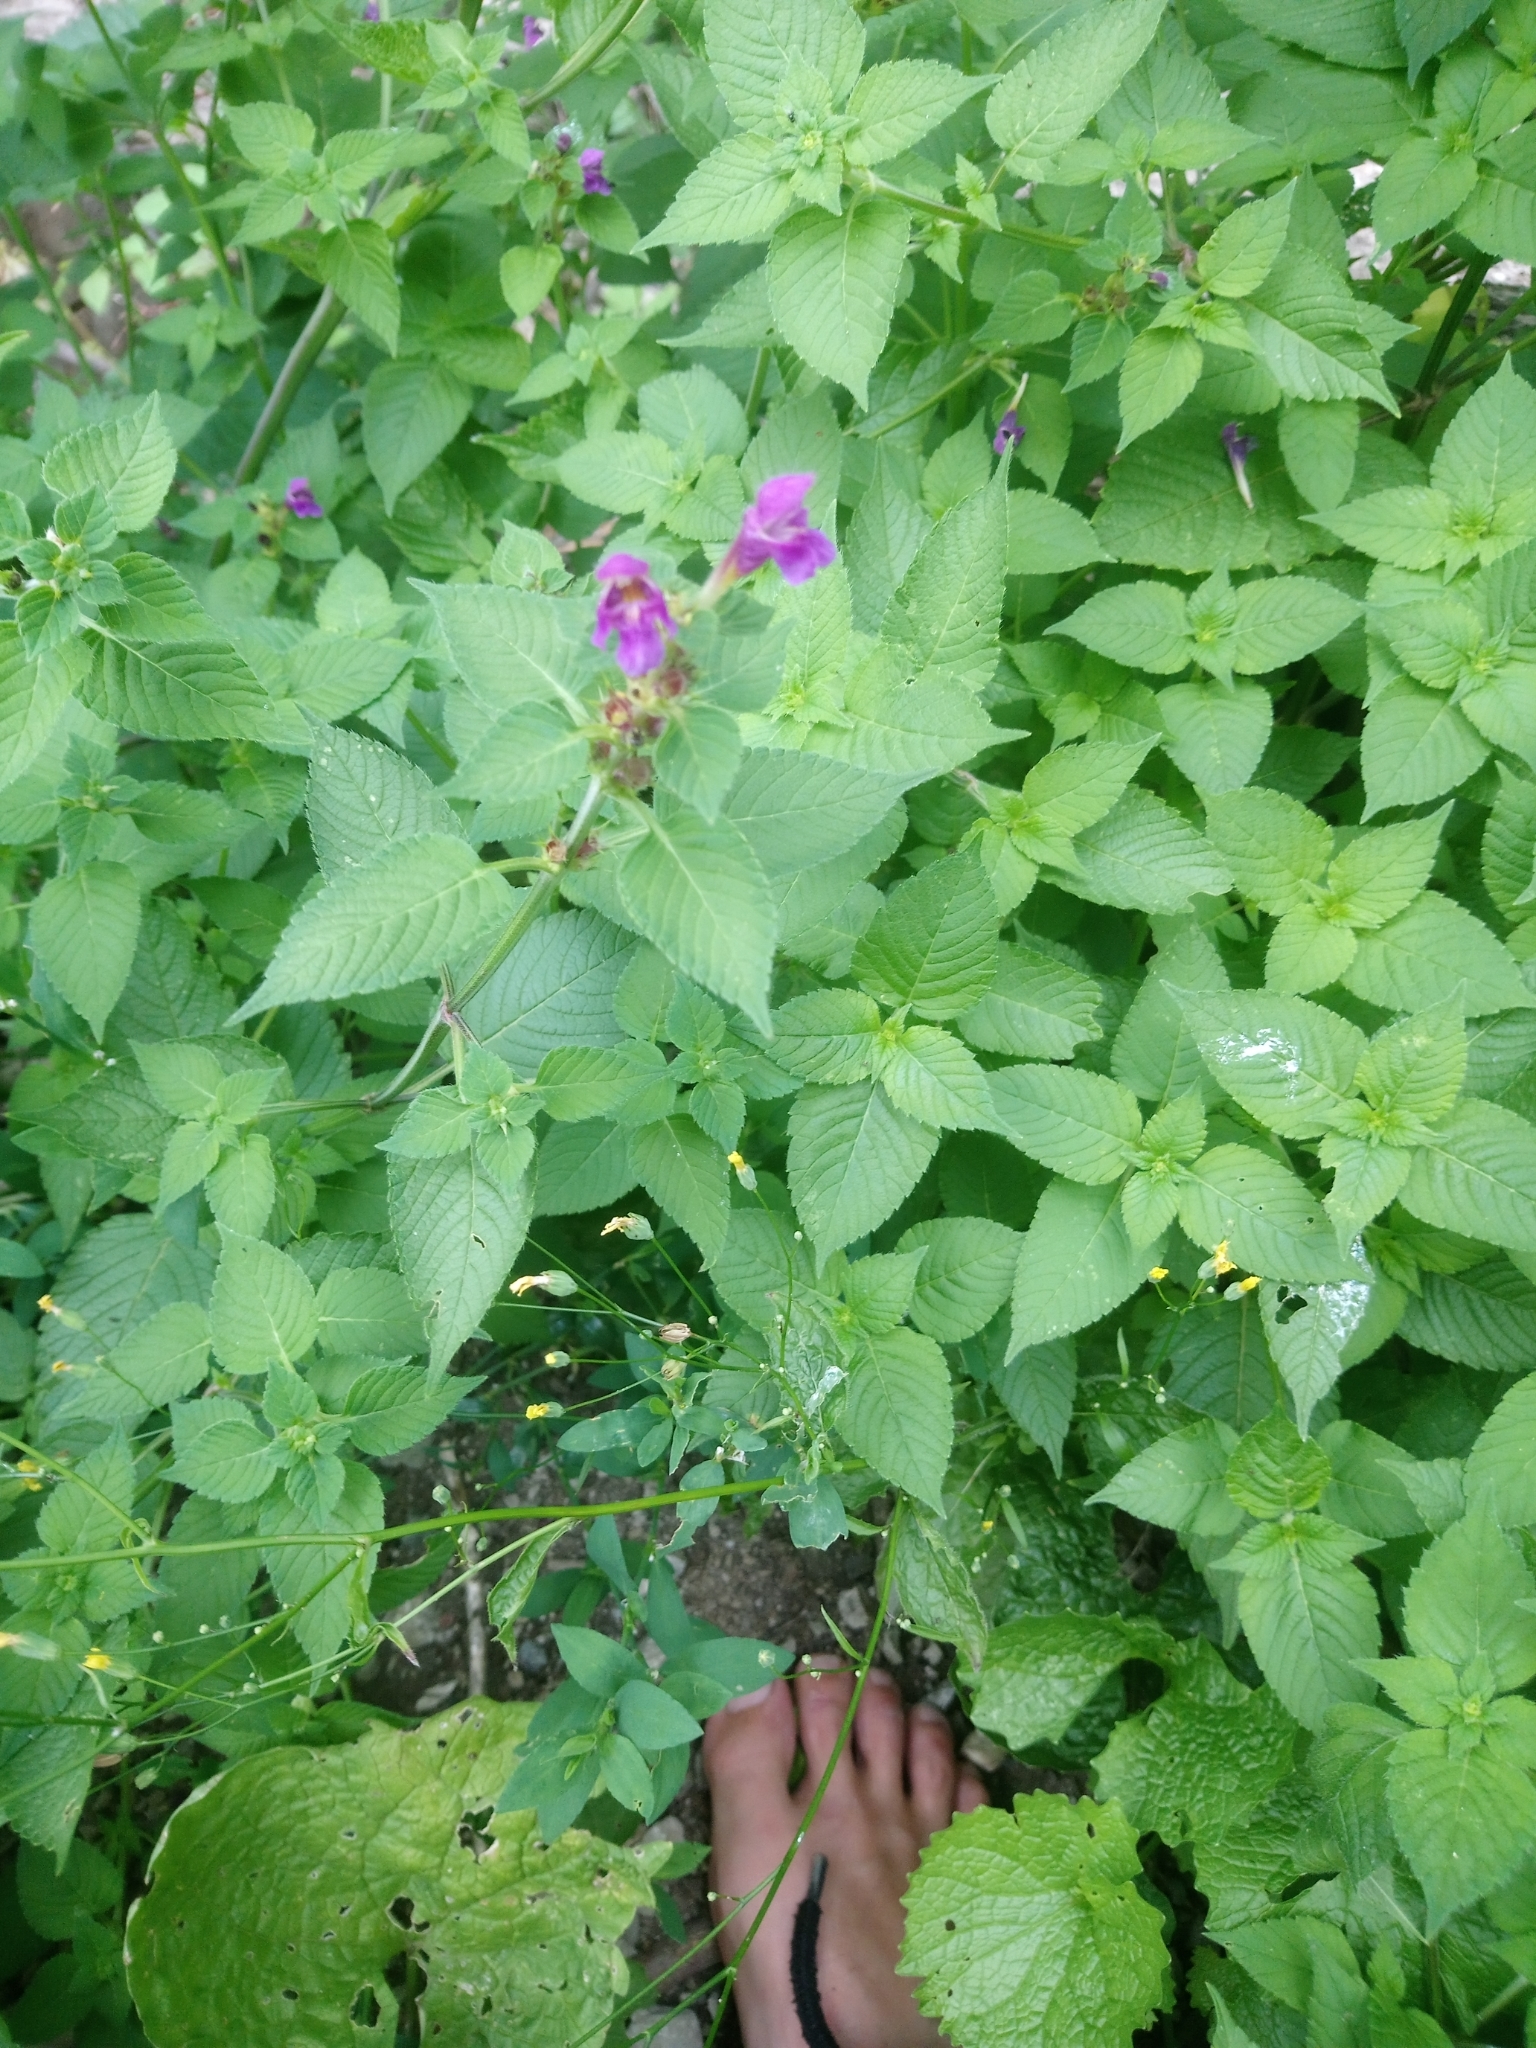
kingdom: Plantae
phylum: Tracheophyta
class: Magnoliopsida
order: Lamiales
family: Lamiaceae
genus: Galeopsis
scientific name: Galeopsis pubescens
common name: Downy hemp-nettle
